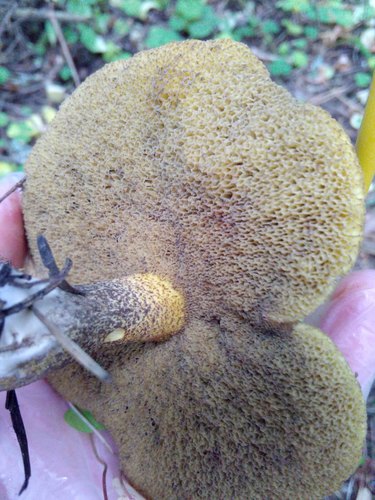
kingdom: Fungi
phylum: Basidiomycota
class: Agaricomycetes
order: Boletales
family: Suillaceae
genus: Suillus
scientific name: Suillus
